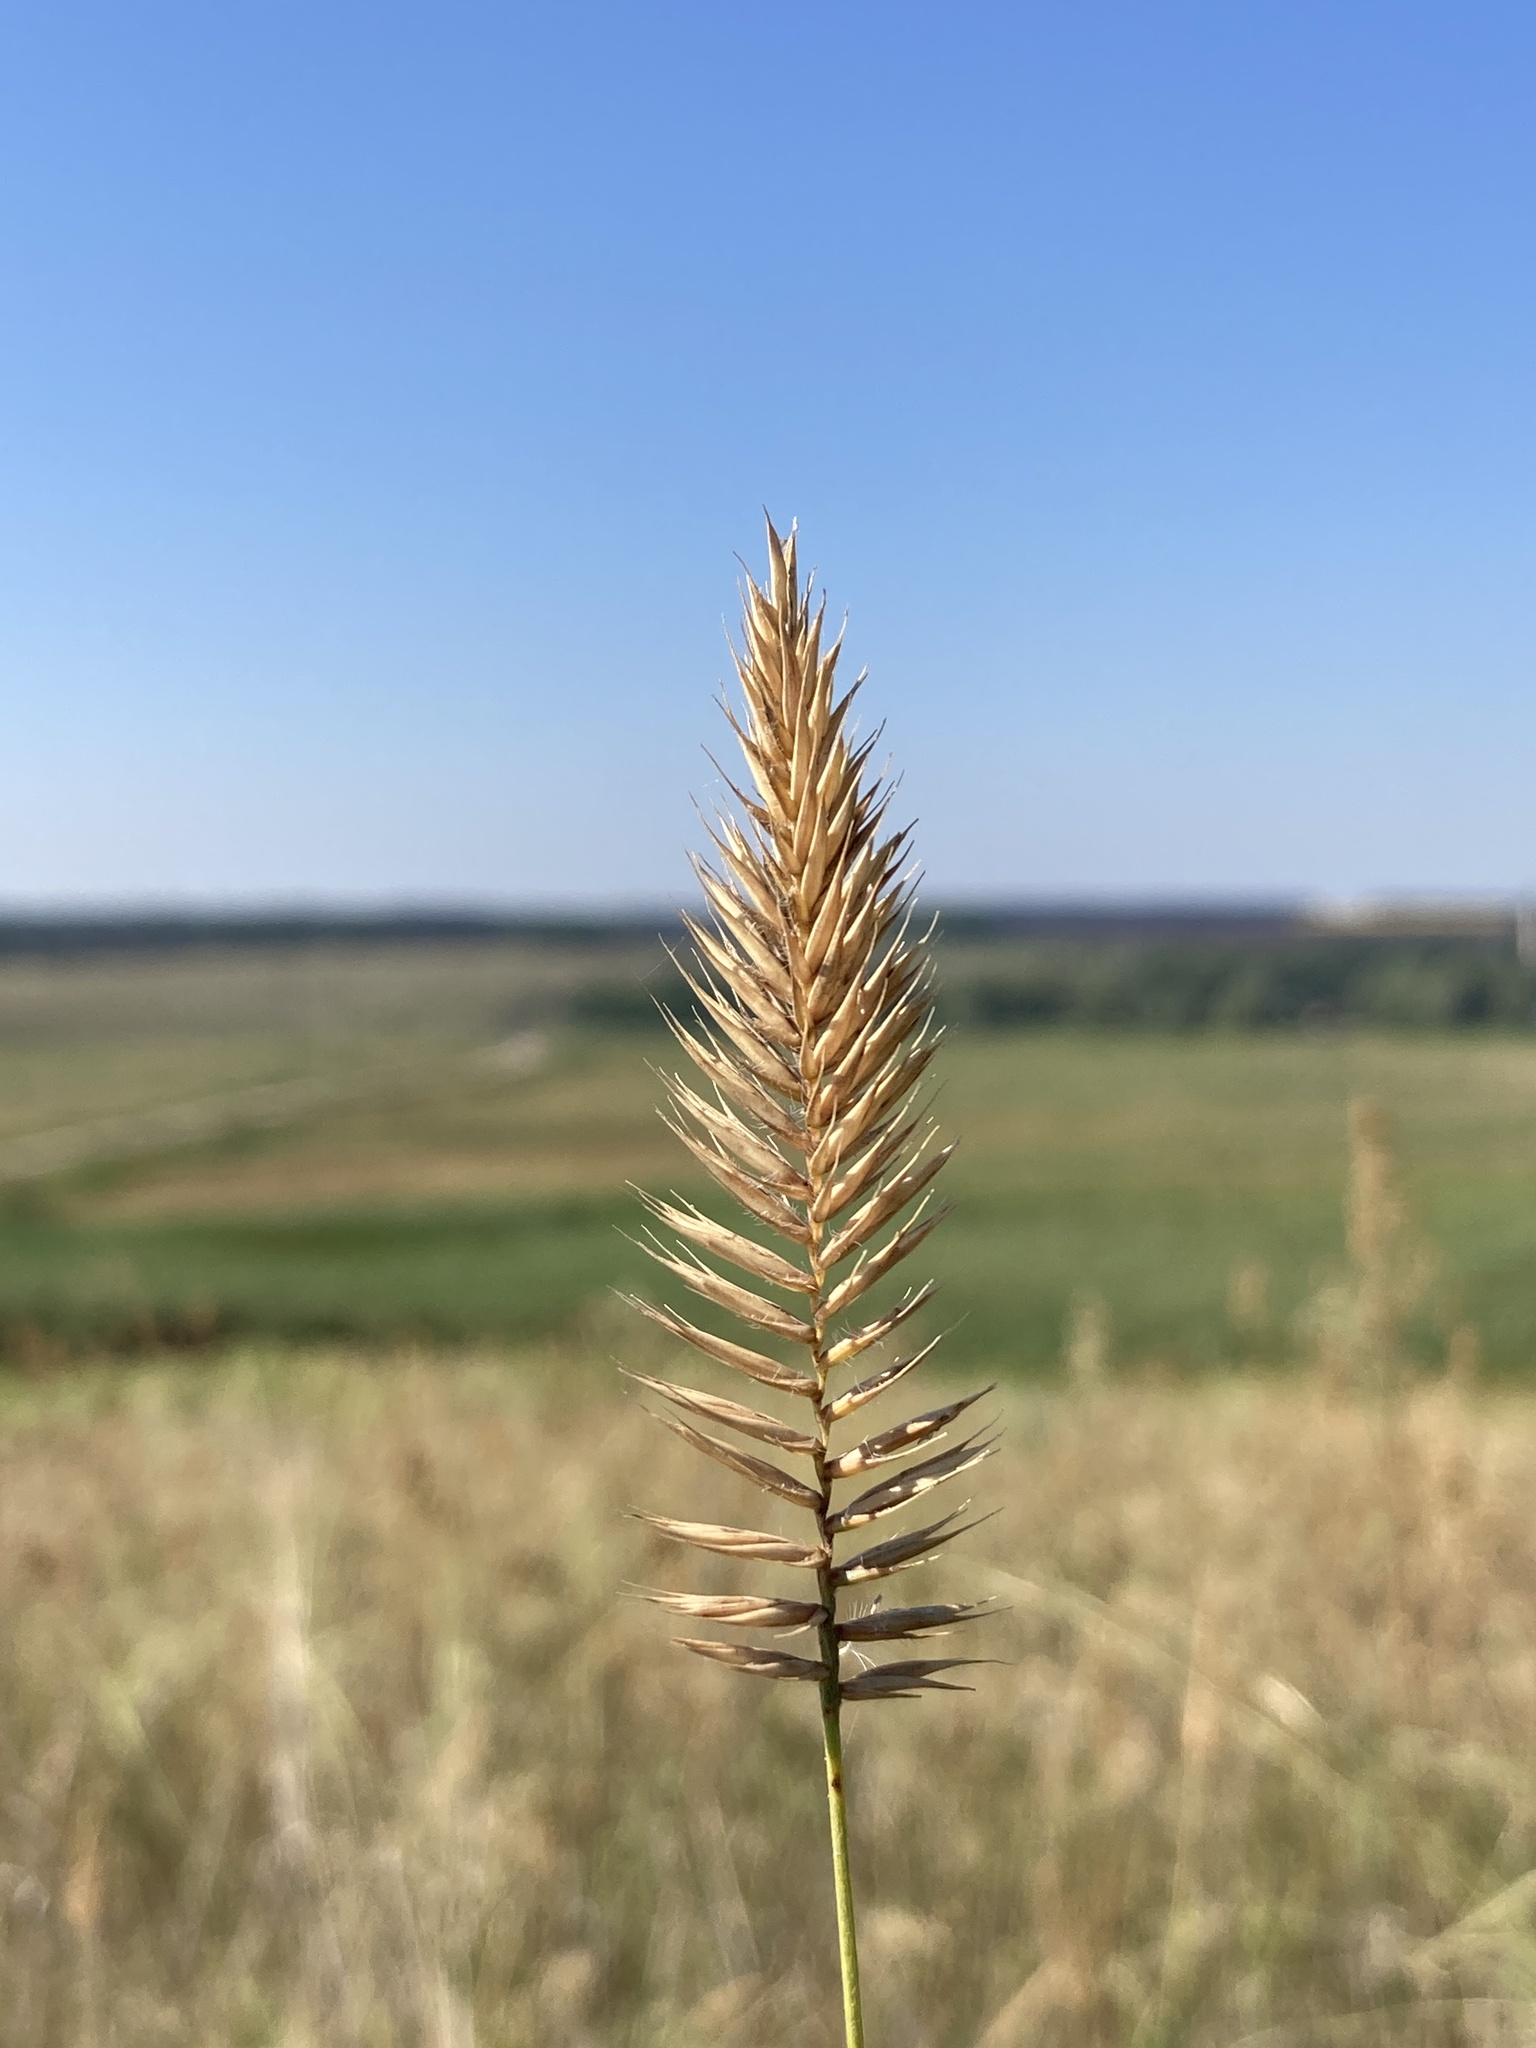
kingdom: Plantae
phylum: Tracheophyta
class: Liliopsida
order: Poales
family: Poaceae
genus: Agropyron
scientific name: Agropyron cristatum
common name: Crested wheatgrass
